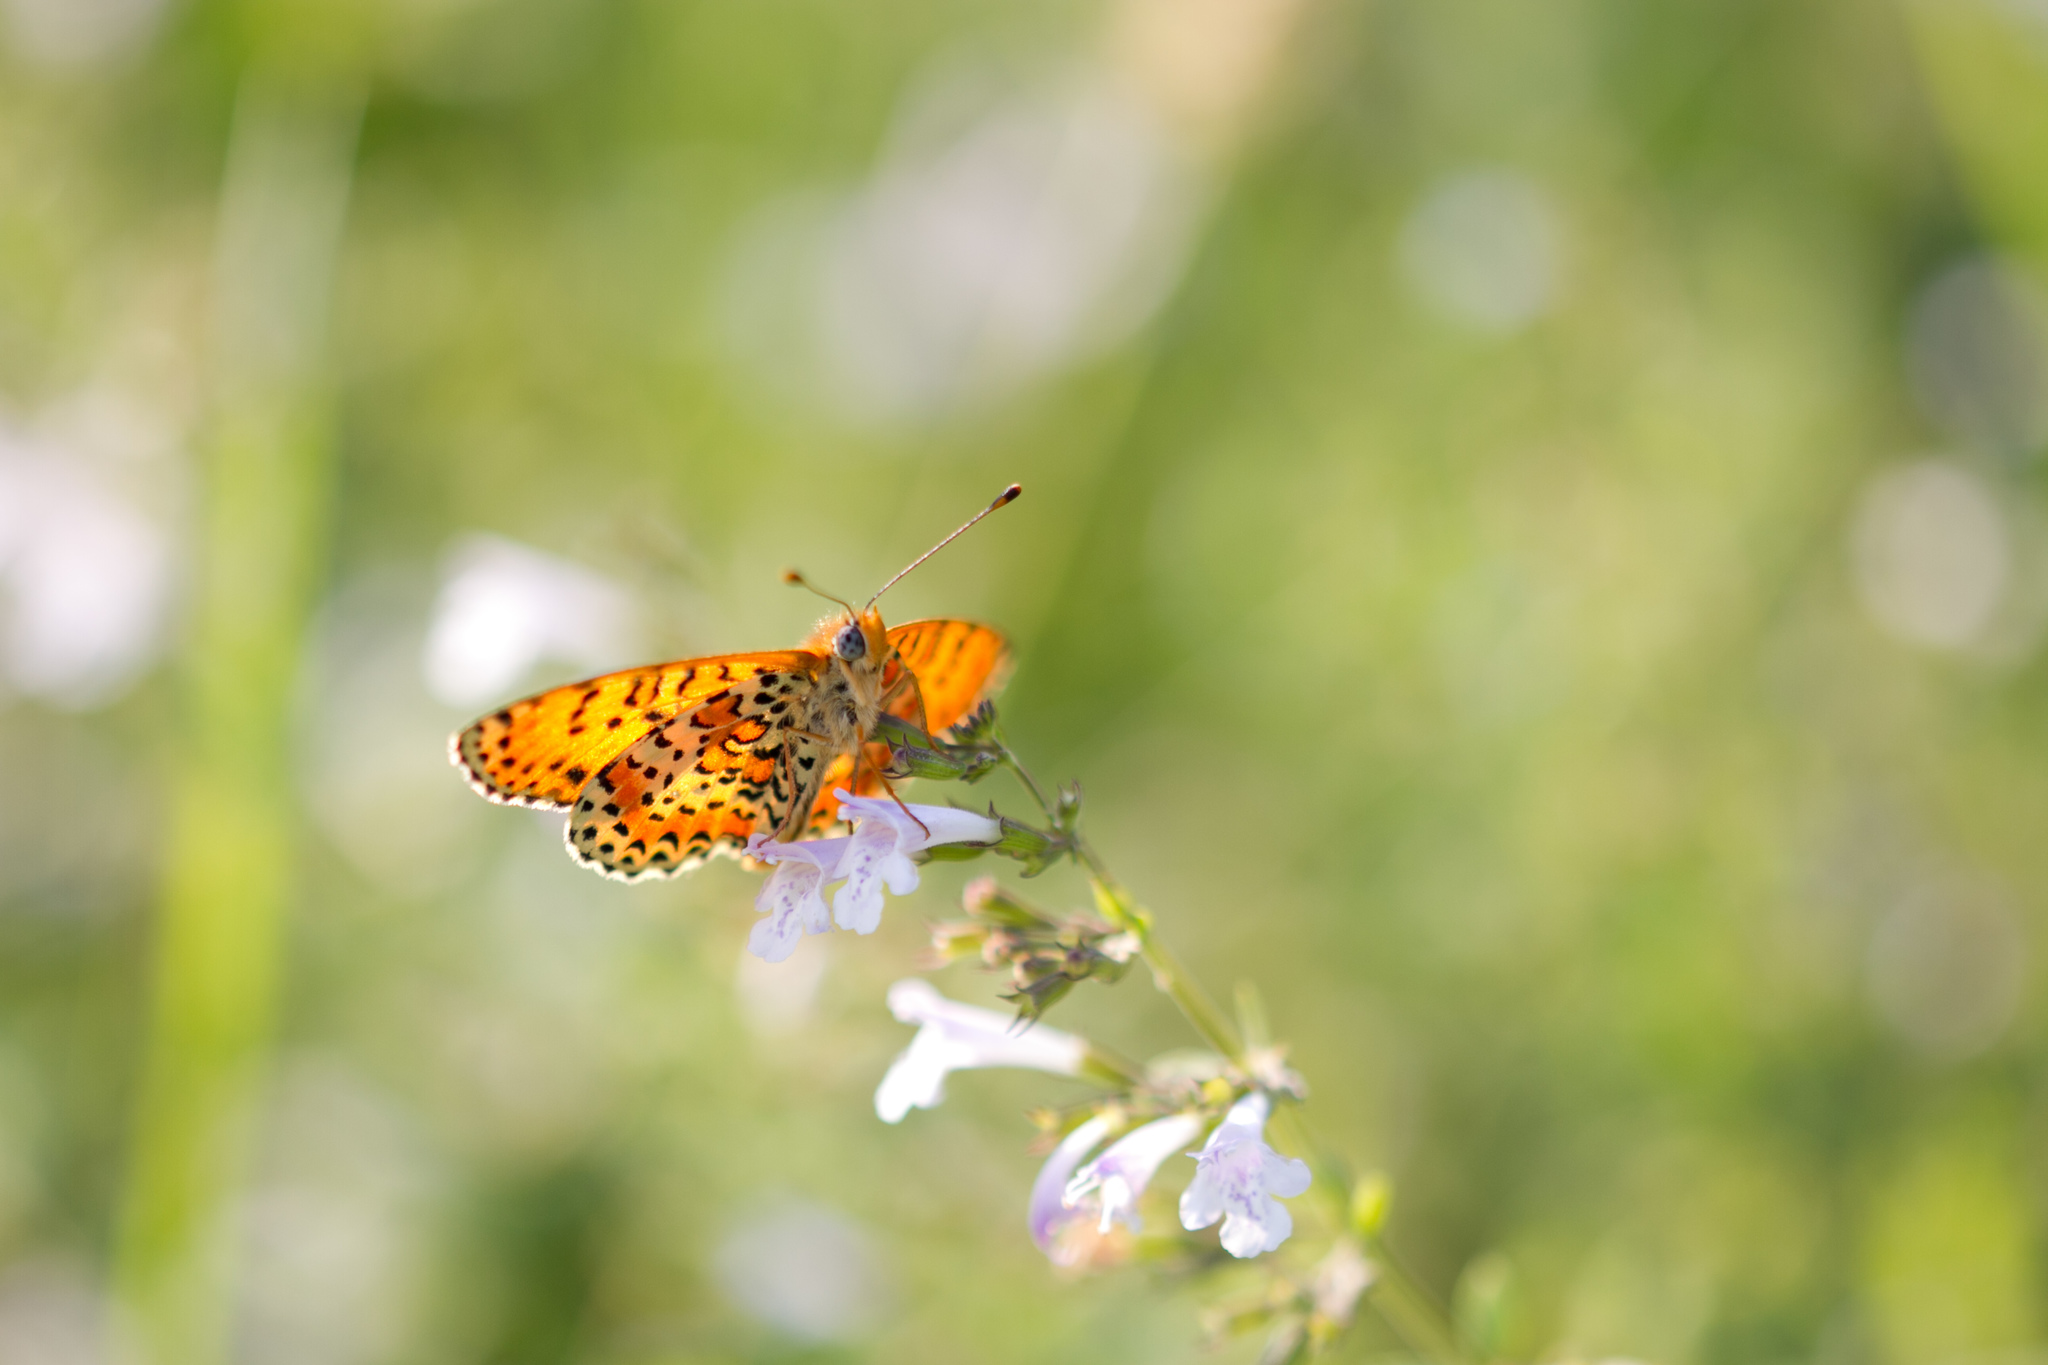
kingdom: Animalia
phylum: Arthropoda
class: Insecta
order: Lepidoptera
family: Nymphalidae
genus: Melitaea
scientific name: Melitaea didyma
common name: Spotted fritillary
